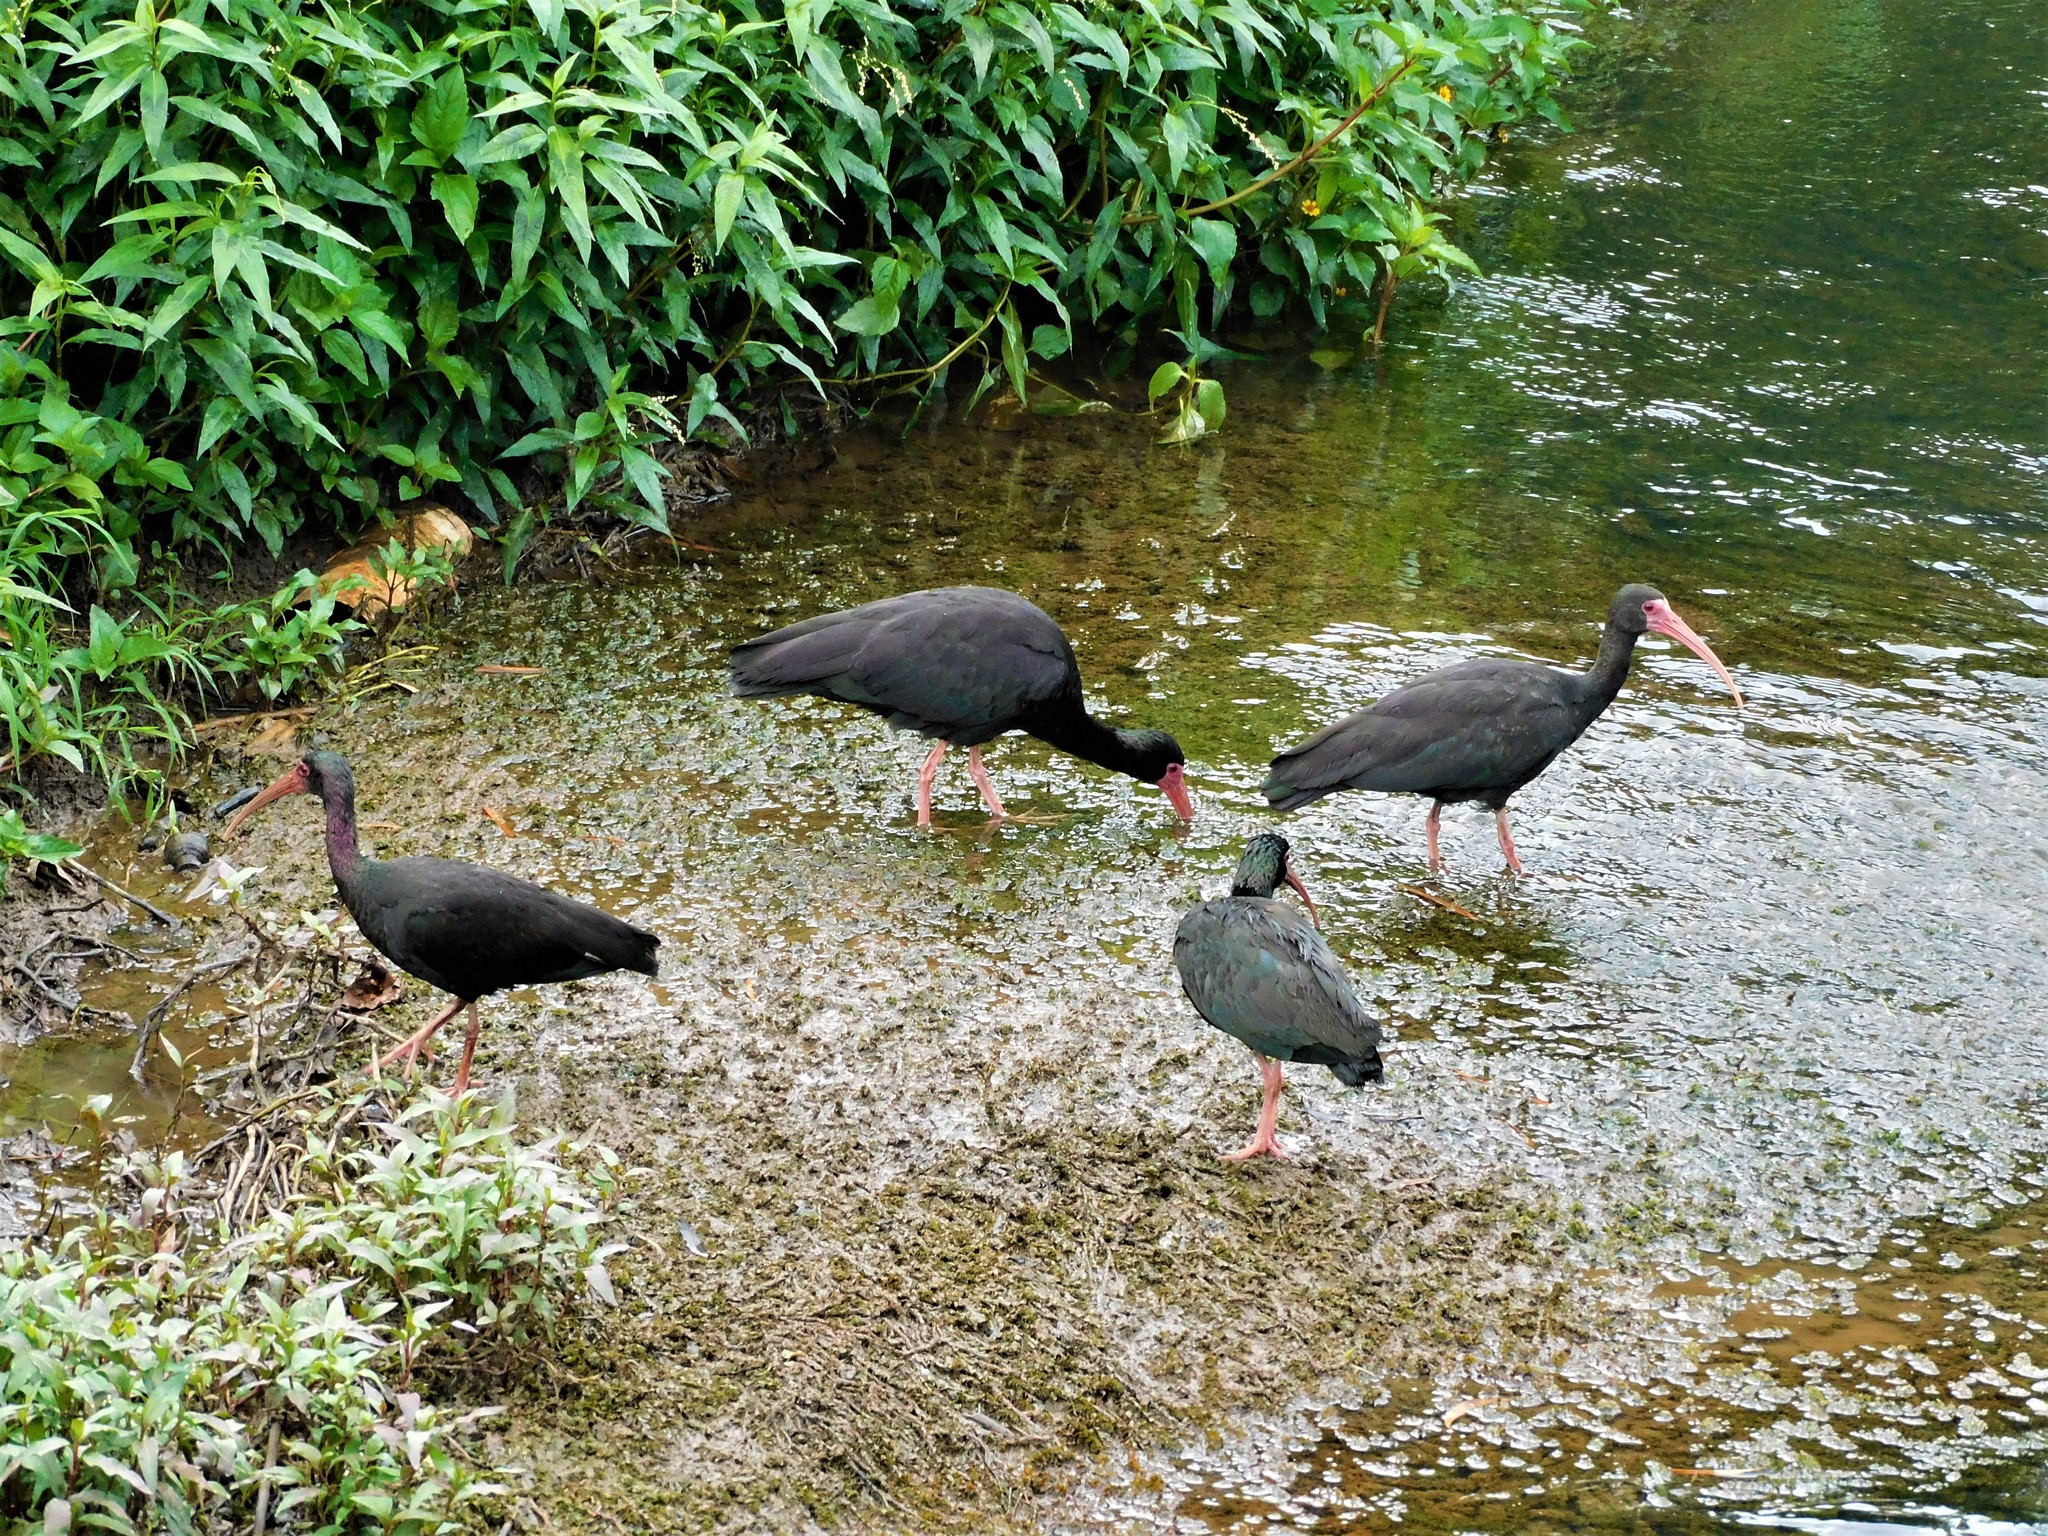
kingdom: Animalia
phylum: Chordata
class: Aves
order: Pelecaniformes
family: Threskiornithidae
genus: Phimosus
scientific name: Phimosus infuscatus
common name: Bare-faced ibis
